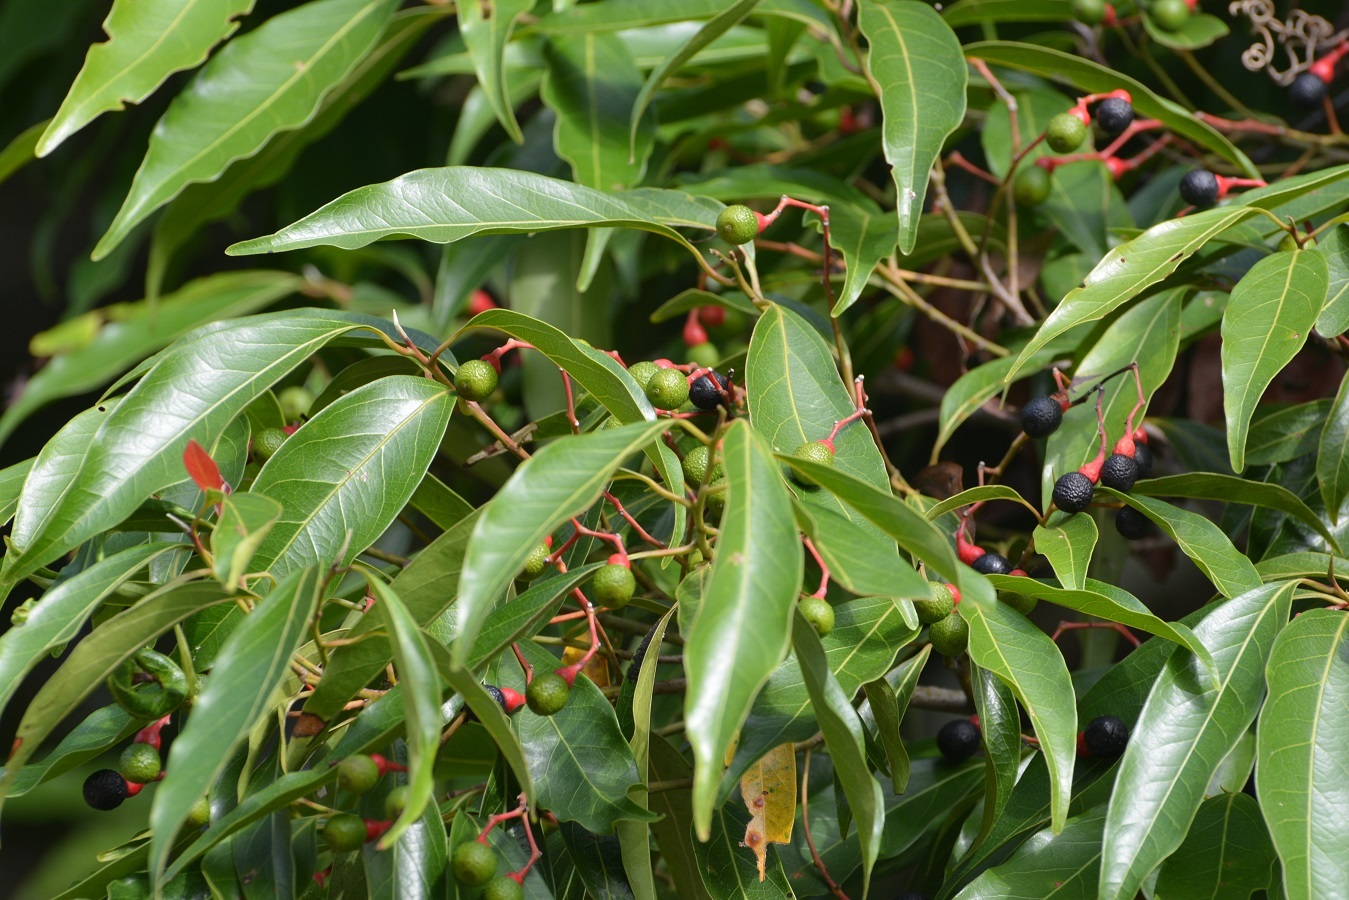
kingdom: Plantae
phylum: Tracheophyta
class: Magnoliopsida
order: Laurales
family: Lauraceae
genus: Damburneya
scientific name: Damburneya salicifolia
